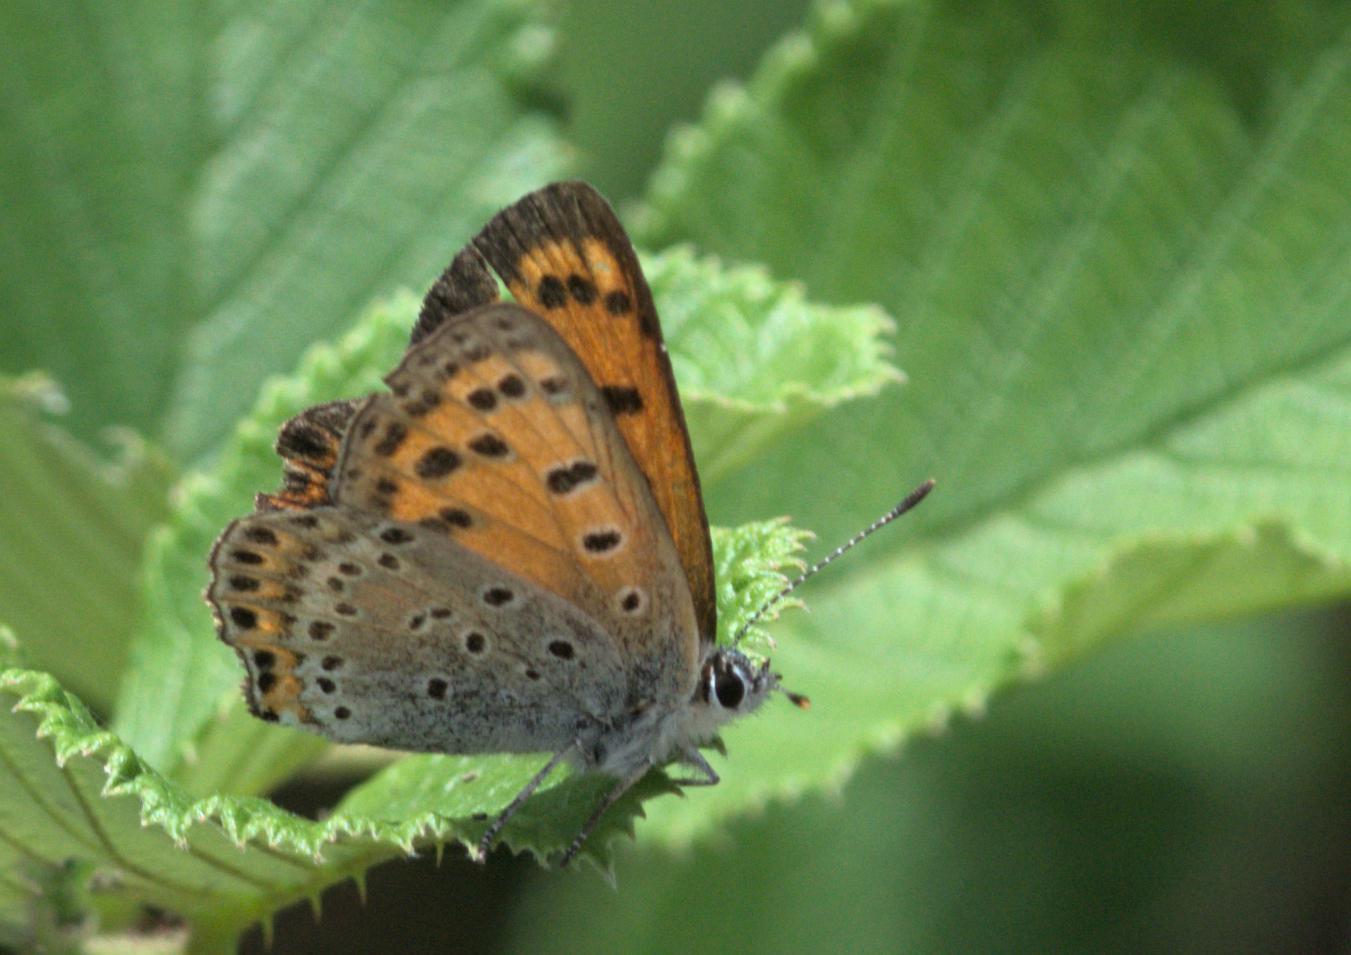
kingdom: Animalia
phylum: Arthropoda
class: Insecta
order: Lepidoptera
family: Lycaenidae
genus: Lycaena
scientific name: Lycaena panava
